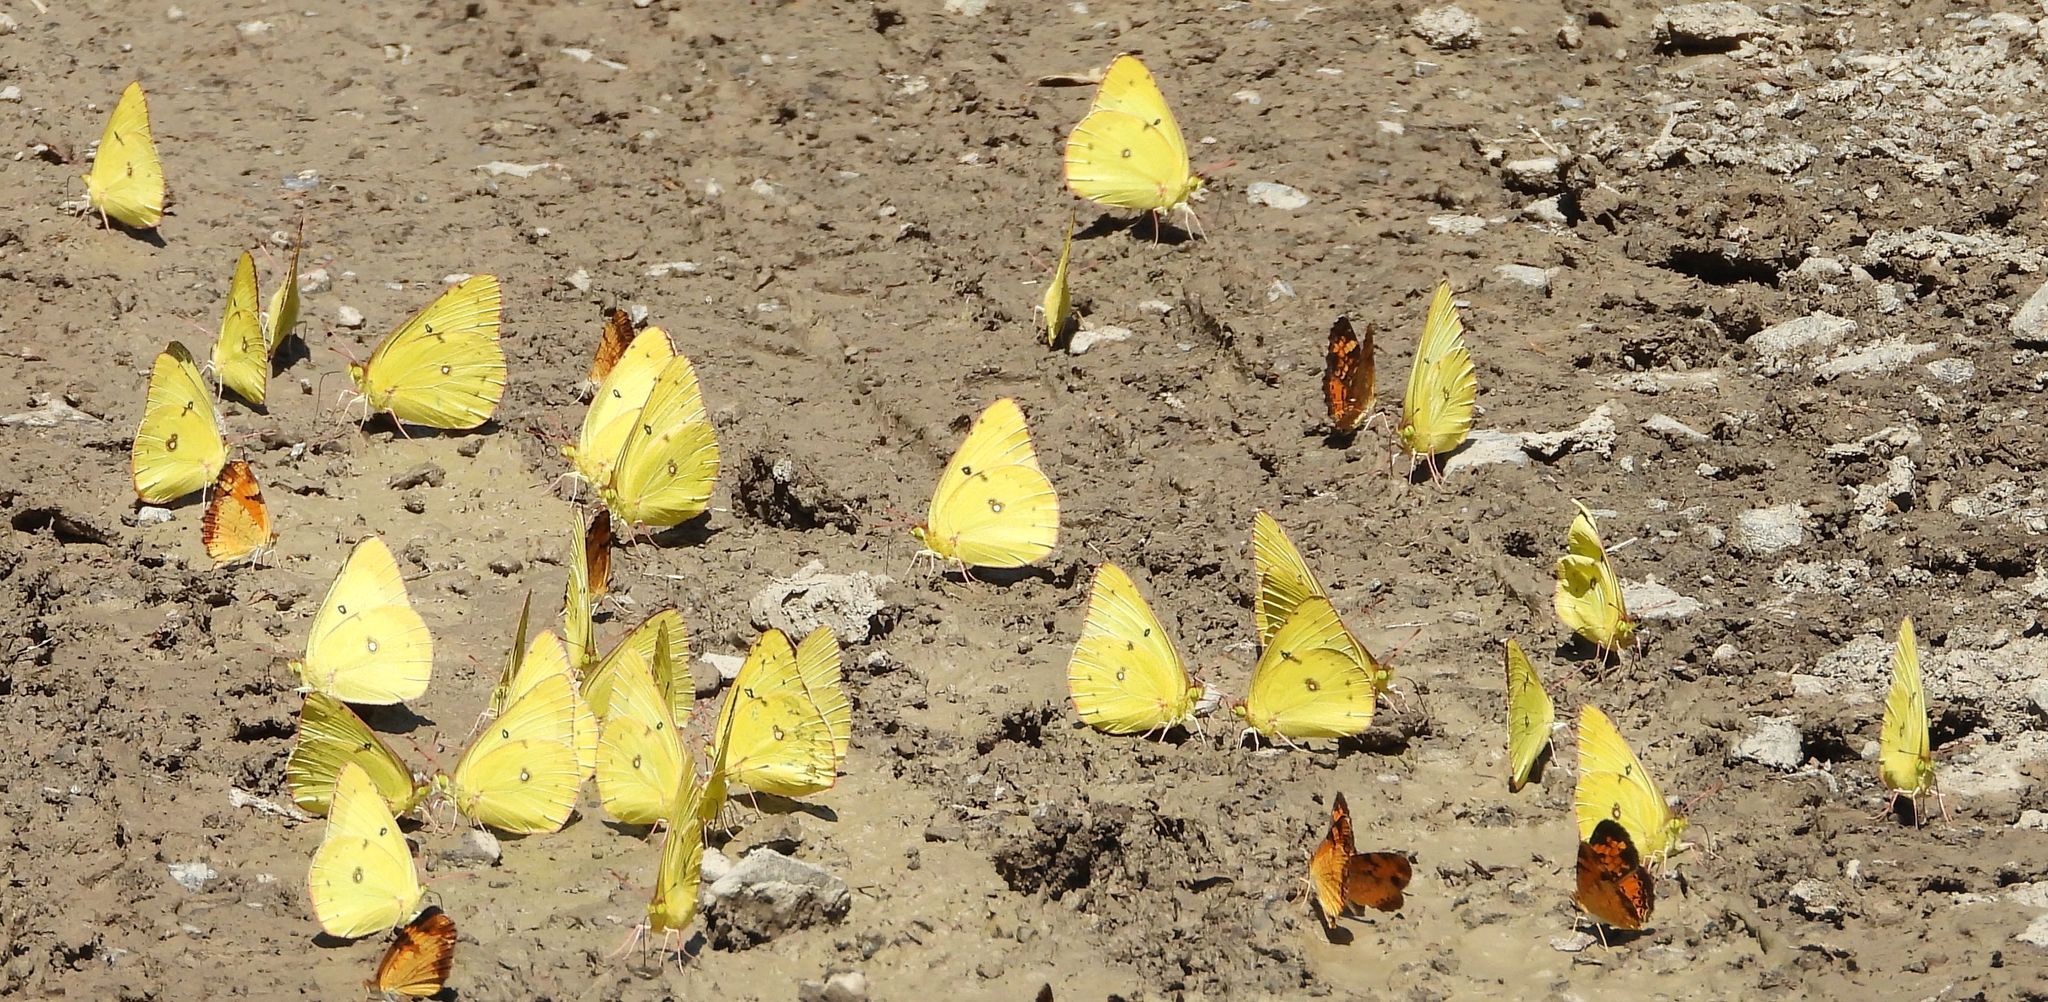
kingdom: Animalia
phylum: Arthropoda
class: Insecta
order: Lepidoptera
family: Pieridae
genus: Colias
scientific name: Colias philodice
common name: Clouded sulphur
